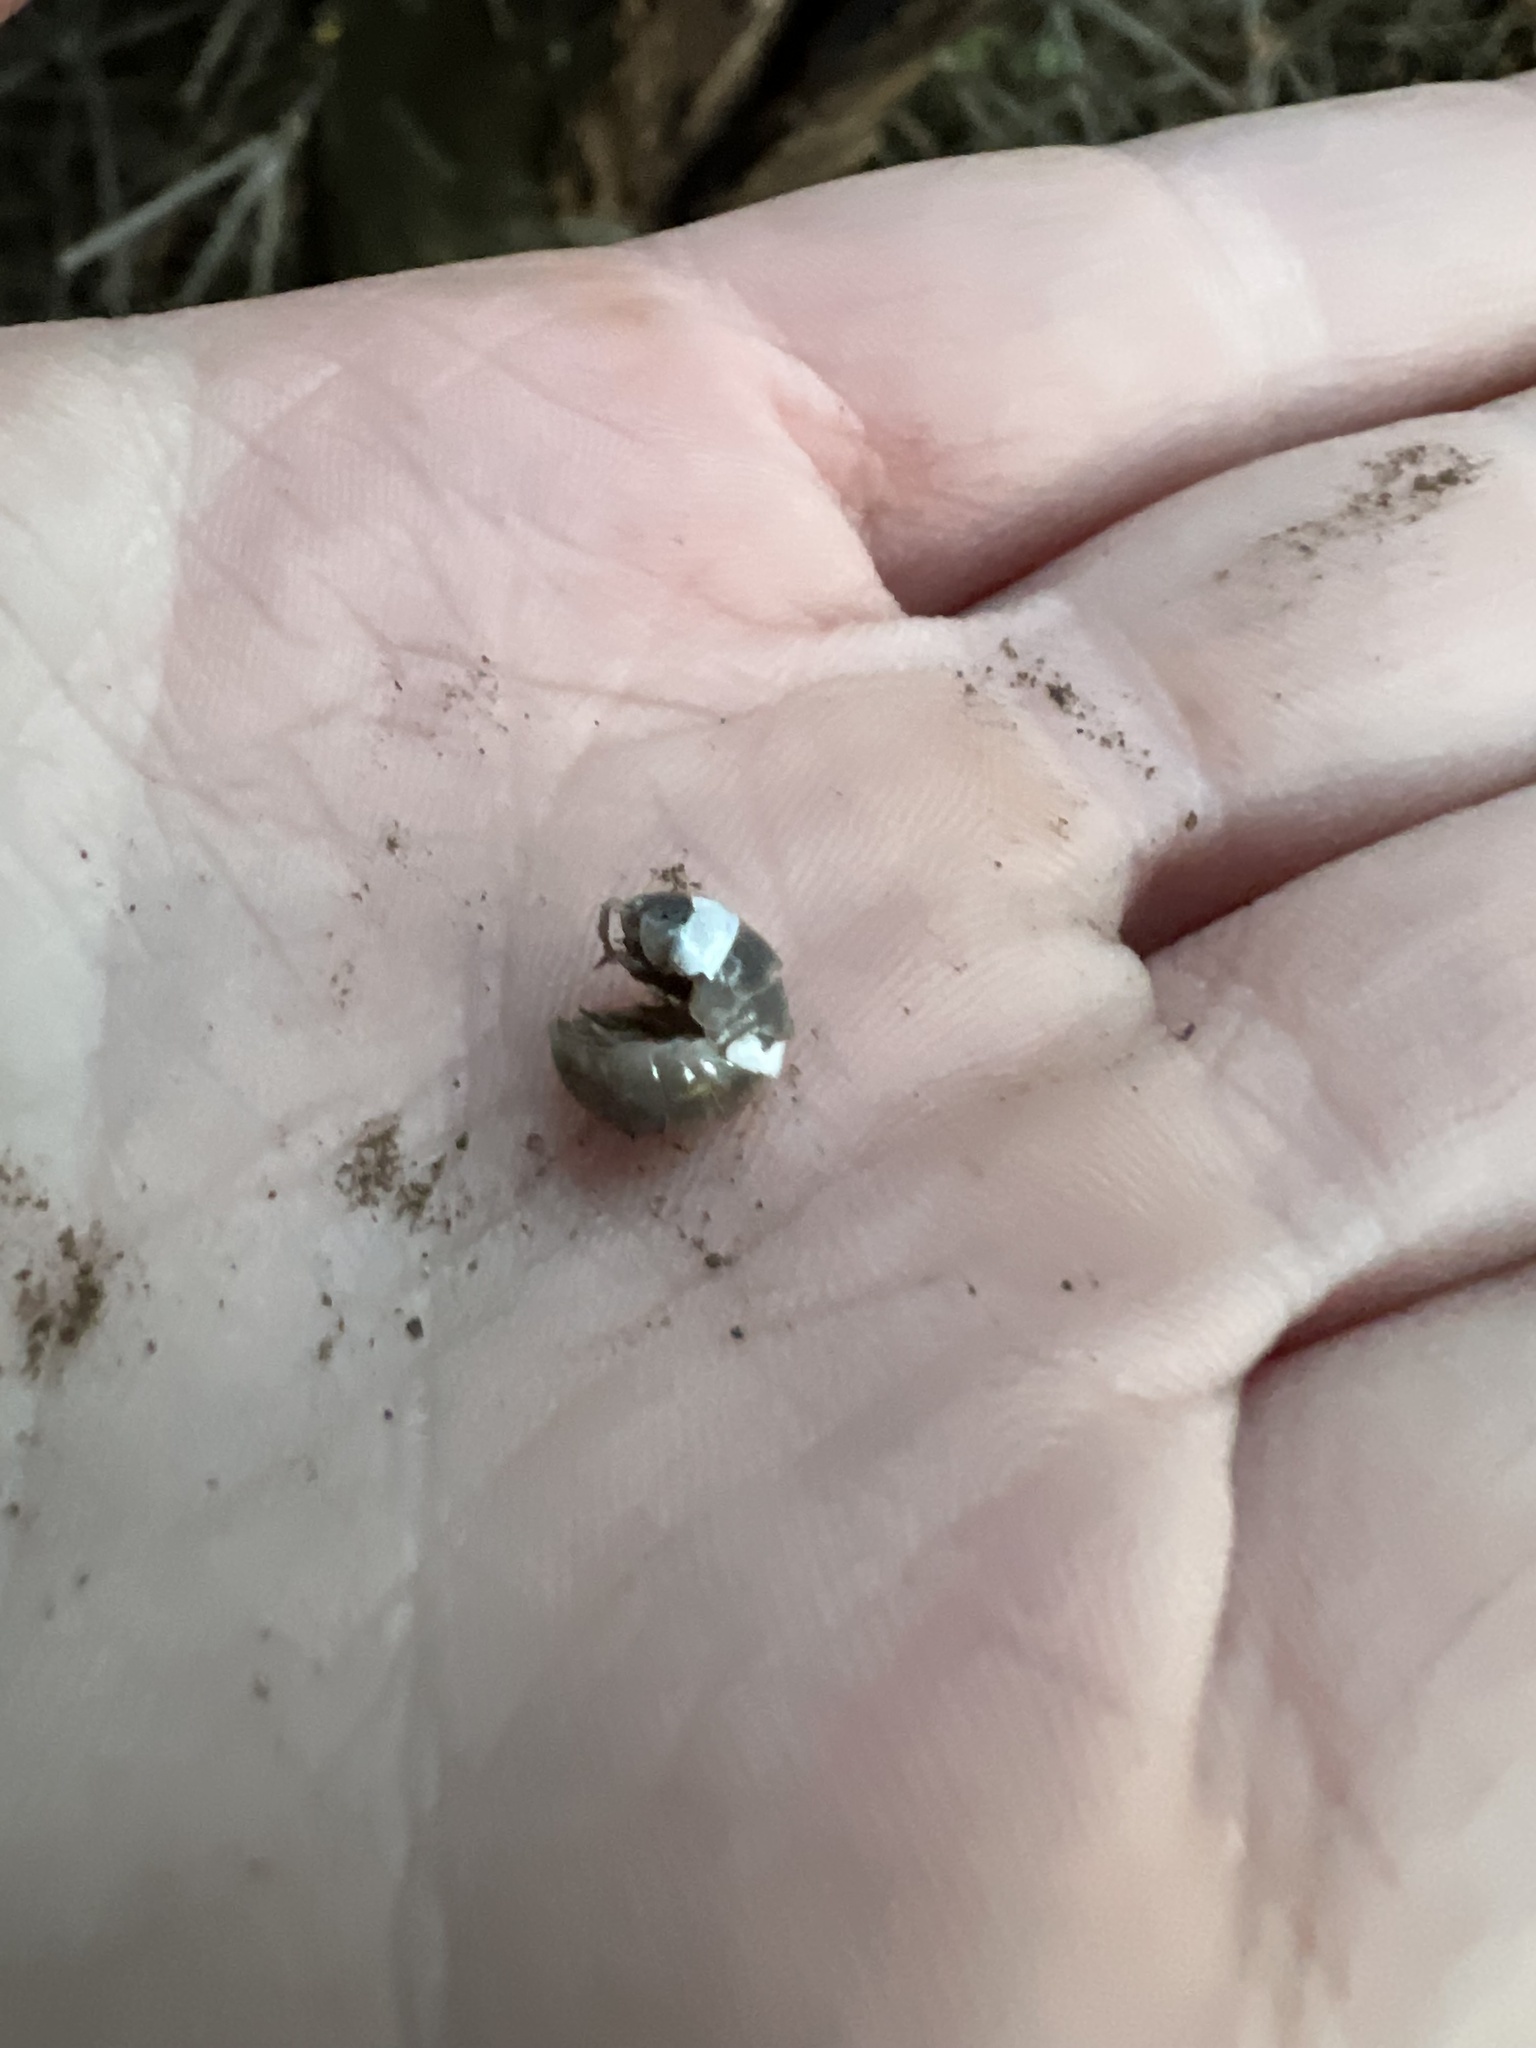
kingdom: Animalia
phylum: Arthropoda
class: Malacostraca
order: Isopoda
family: Armadillidiidae
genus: Armadillidium
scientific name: Armadillidium vulgare
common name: Common pill woodlouse
